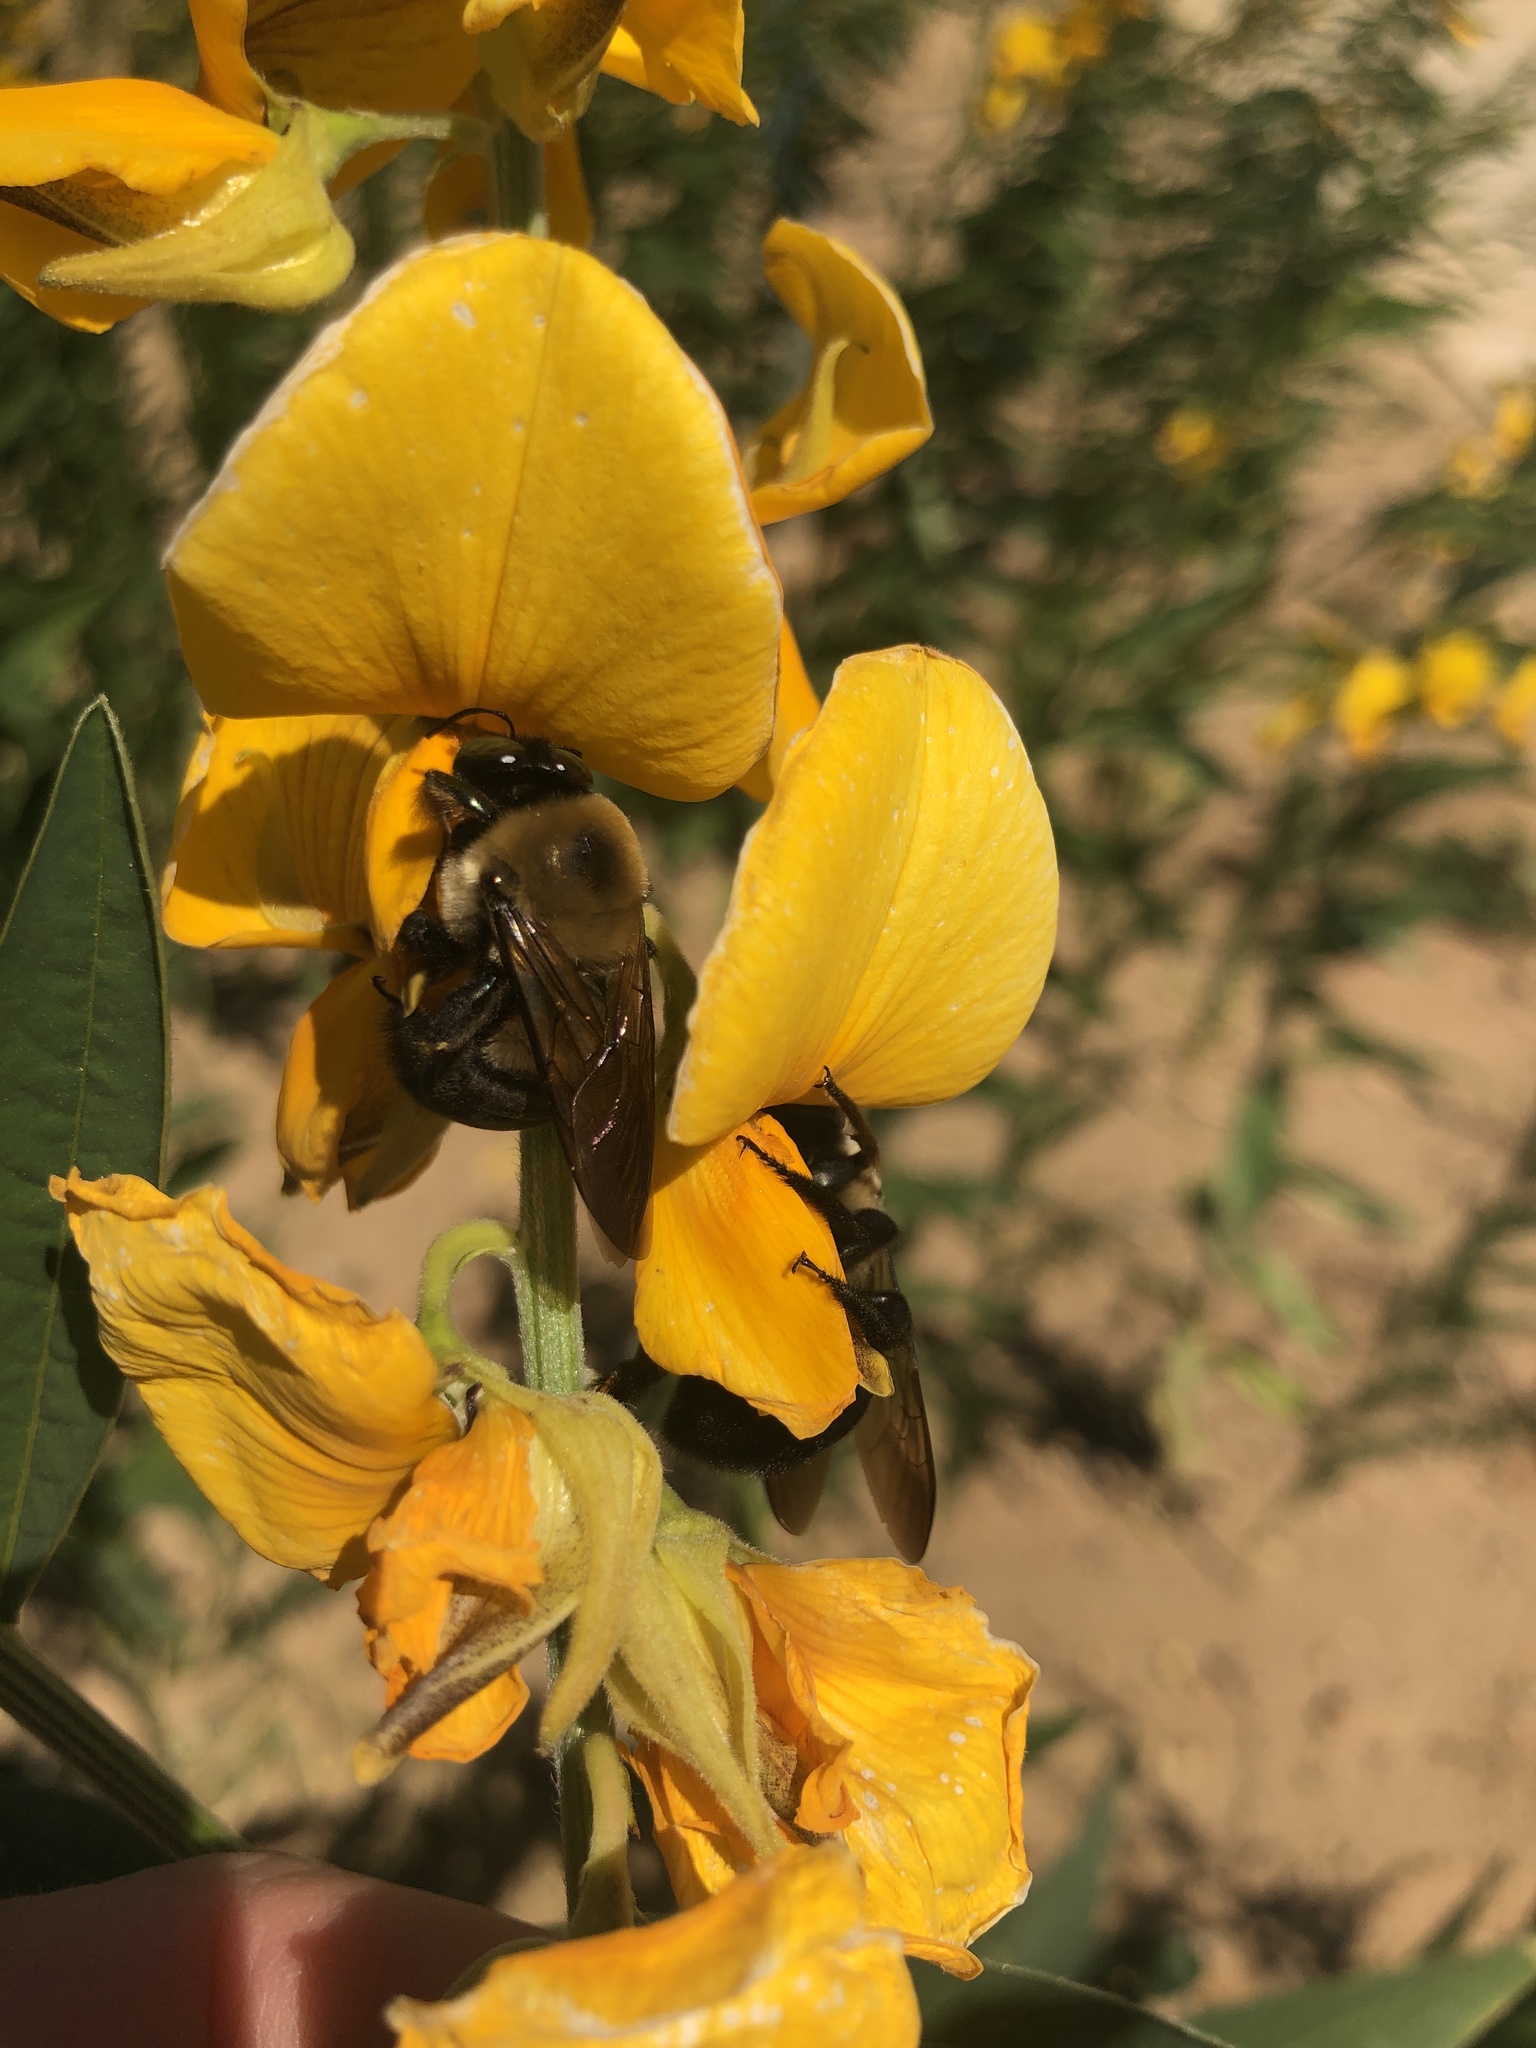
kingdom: Animalia
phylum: Arthropoda
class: Insecta
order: Hymenoptera
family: Apidae
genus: Xylocopa
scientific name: Xylocopa virginica
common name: Carpenter bee
